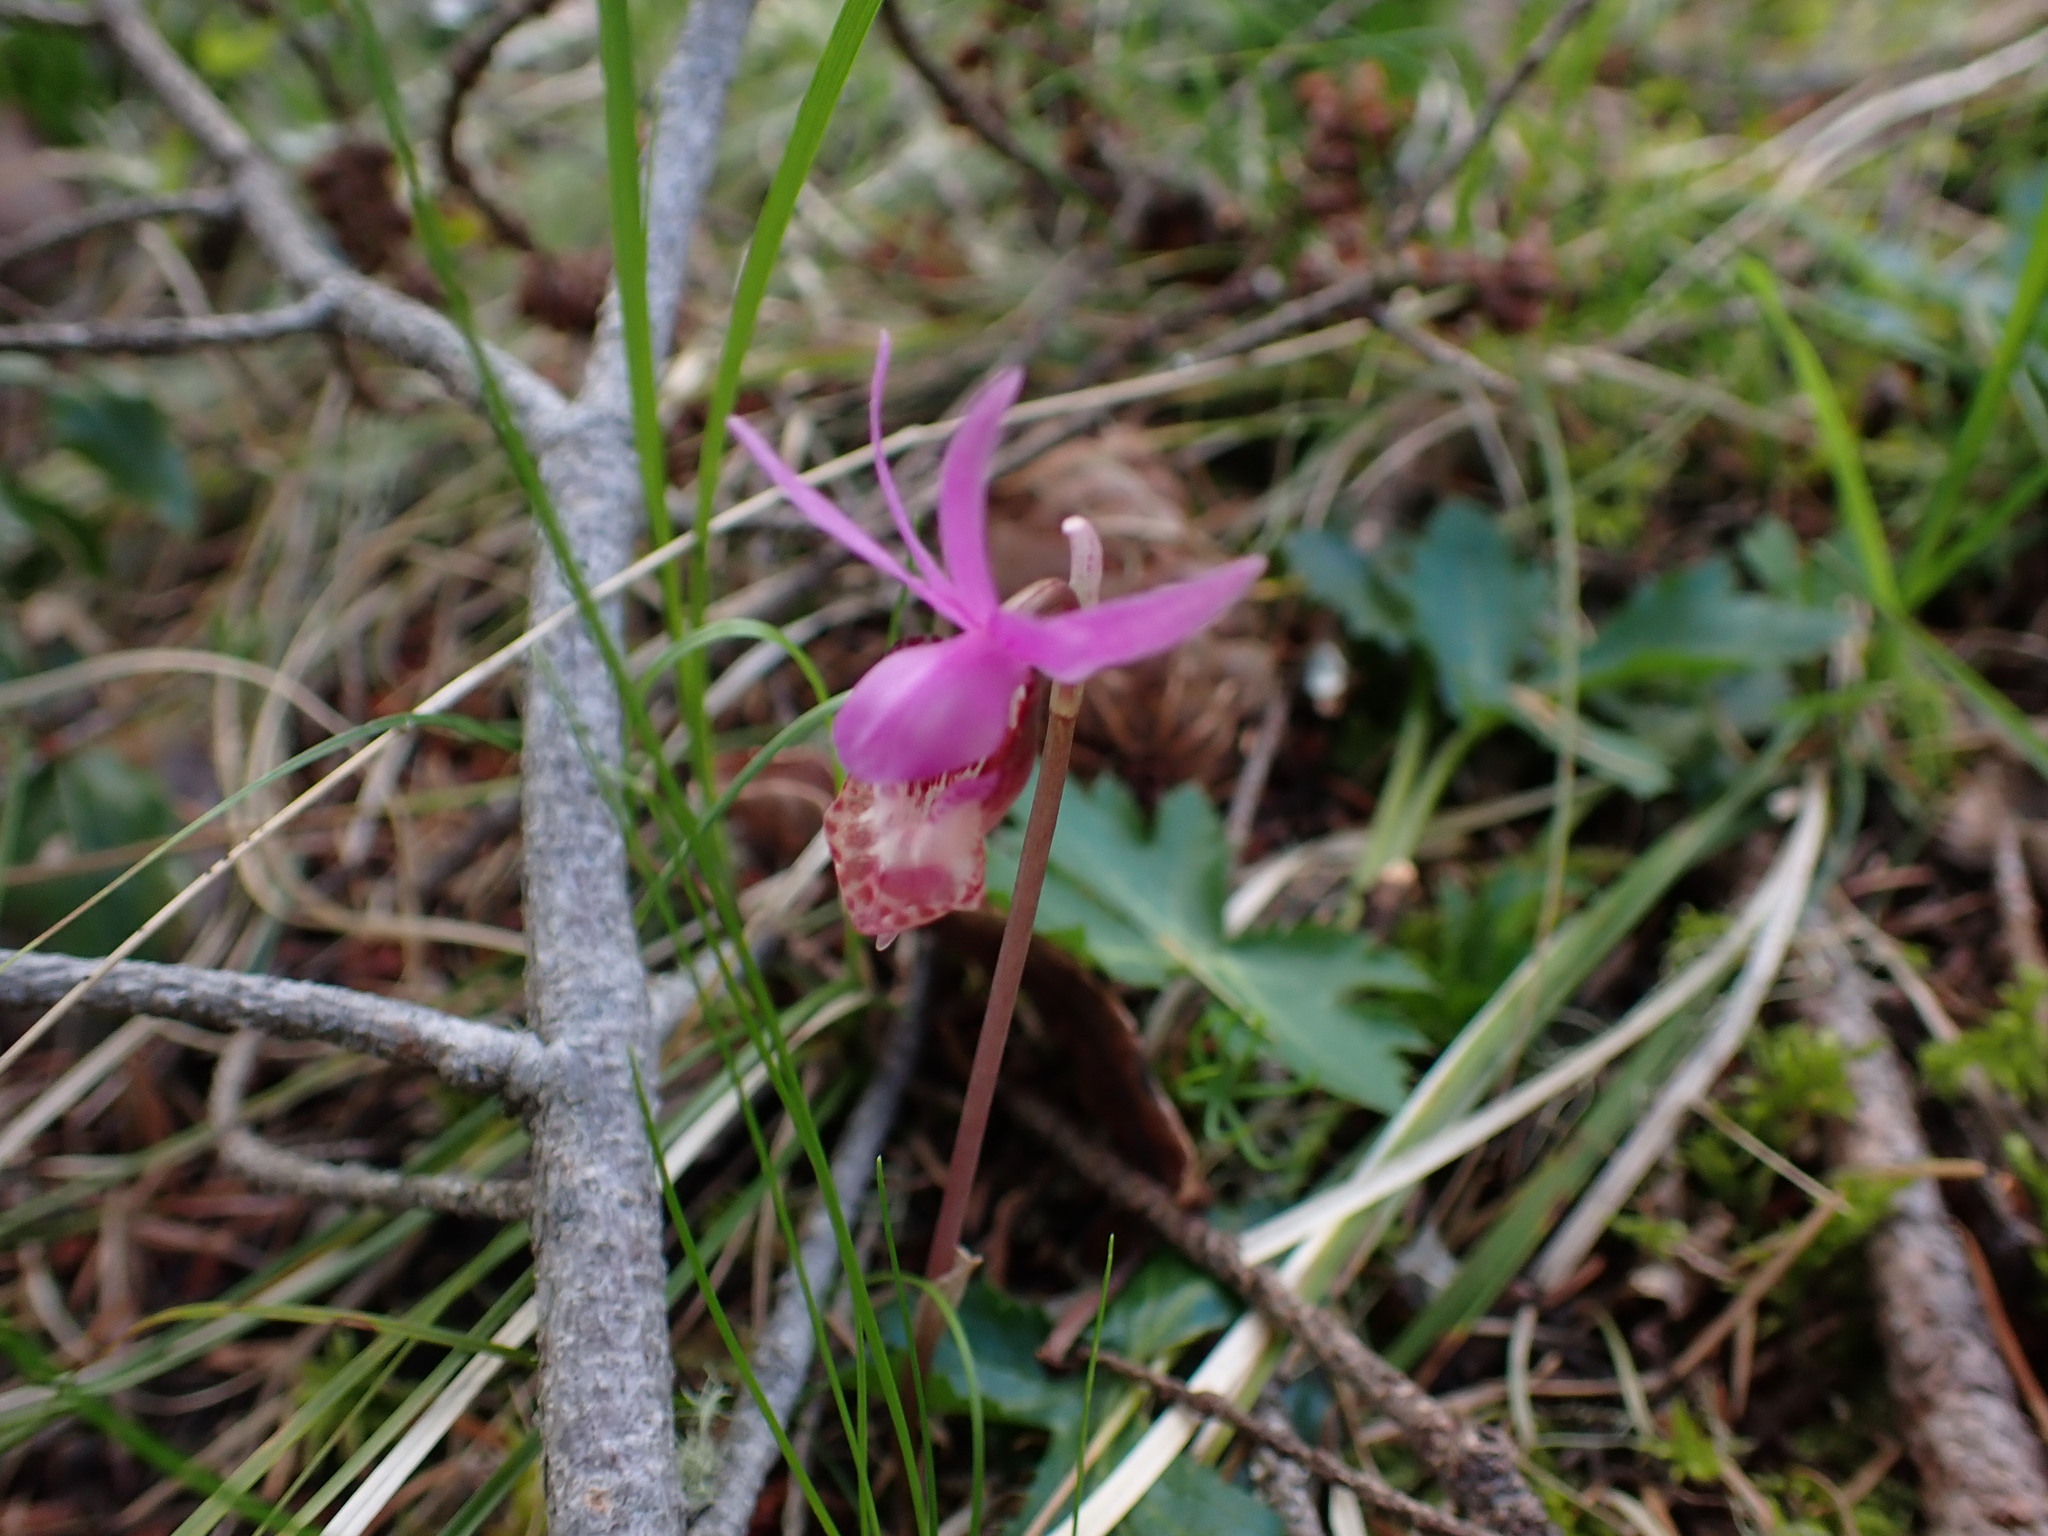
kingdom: Plantae
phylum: Tracheophyta
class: Liliopsida
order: Asparagales
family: Orchidaceae
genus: Calypso
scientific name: Calypso bulbosa
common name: Calypso
